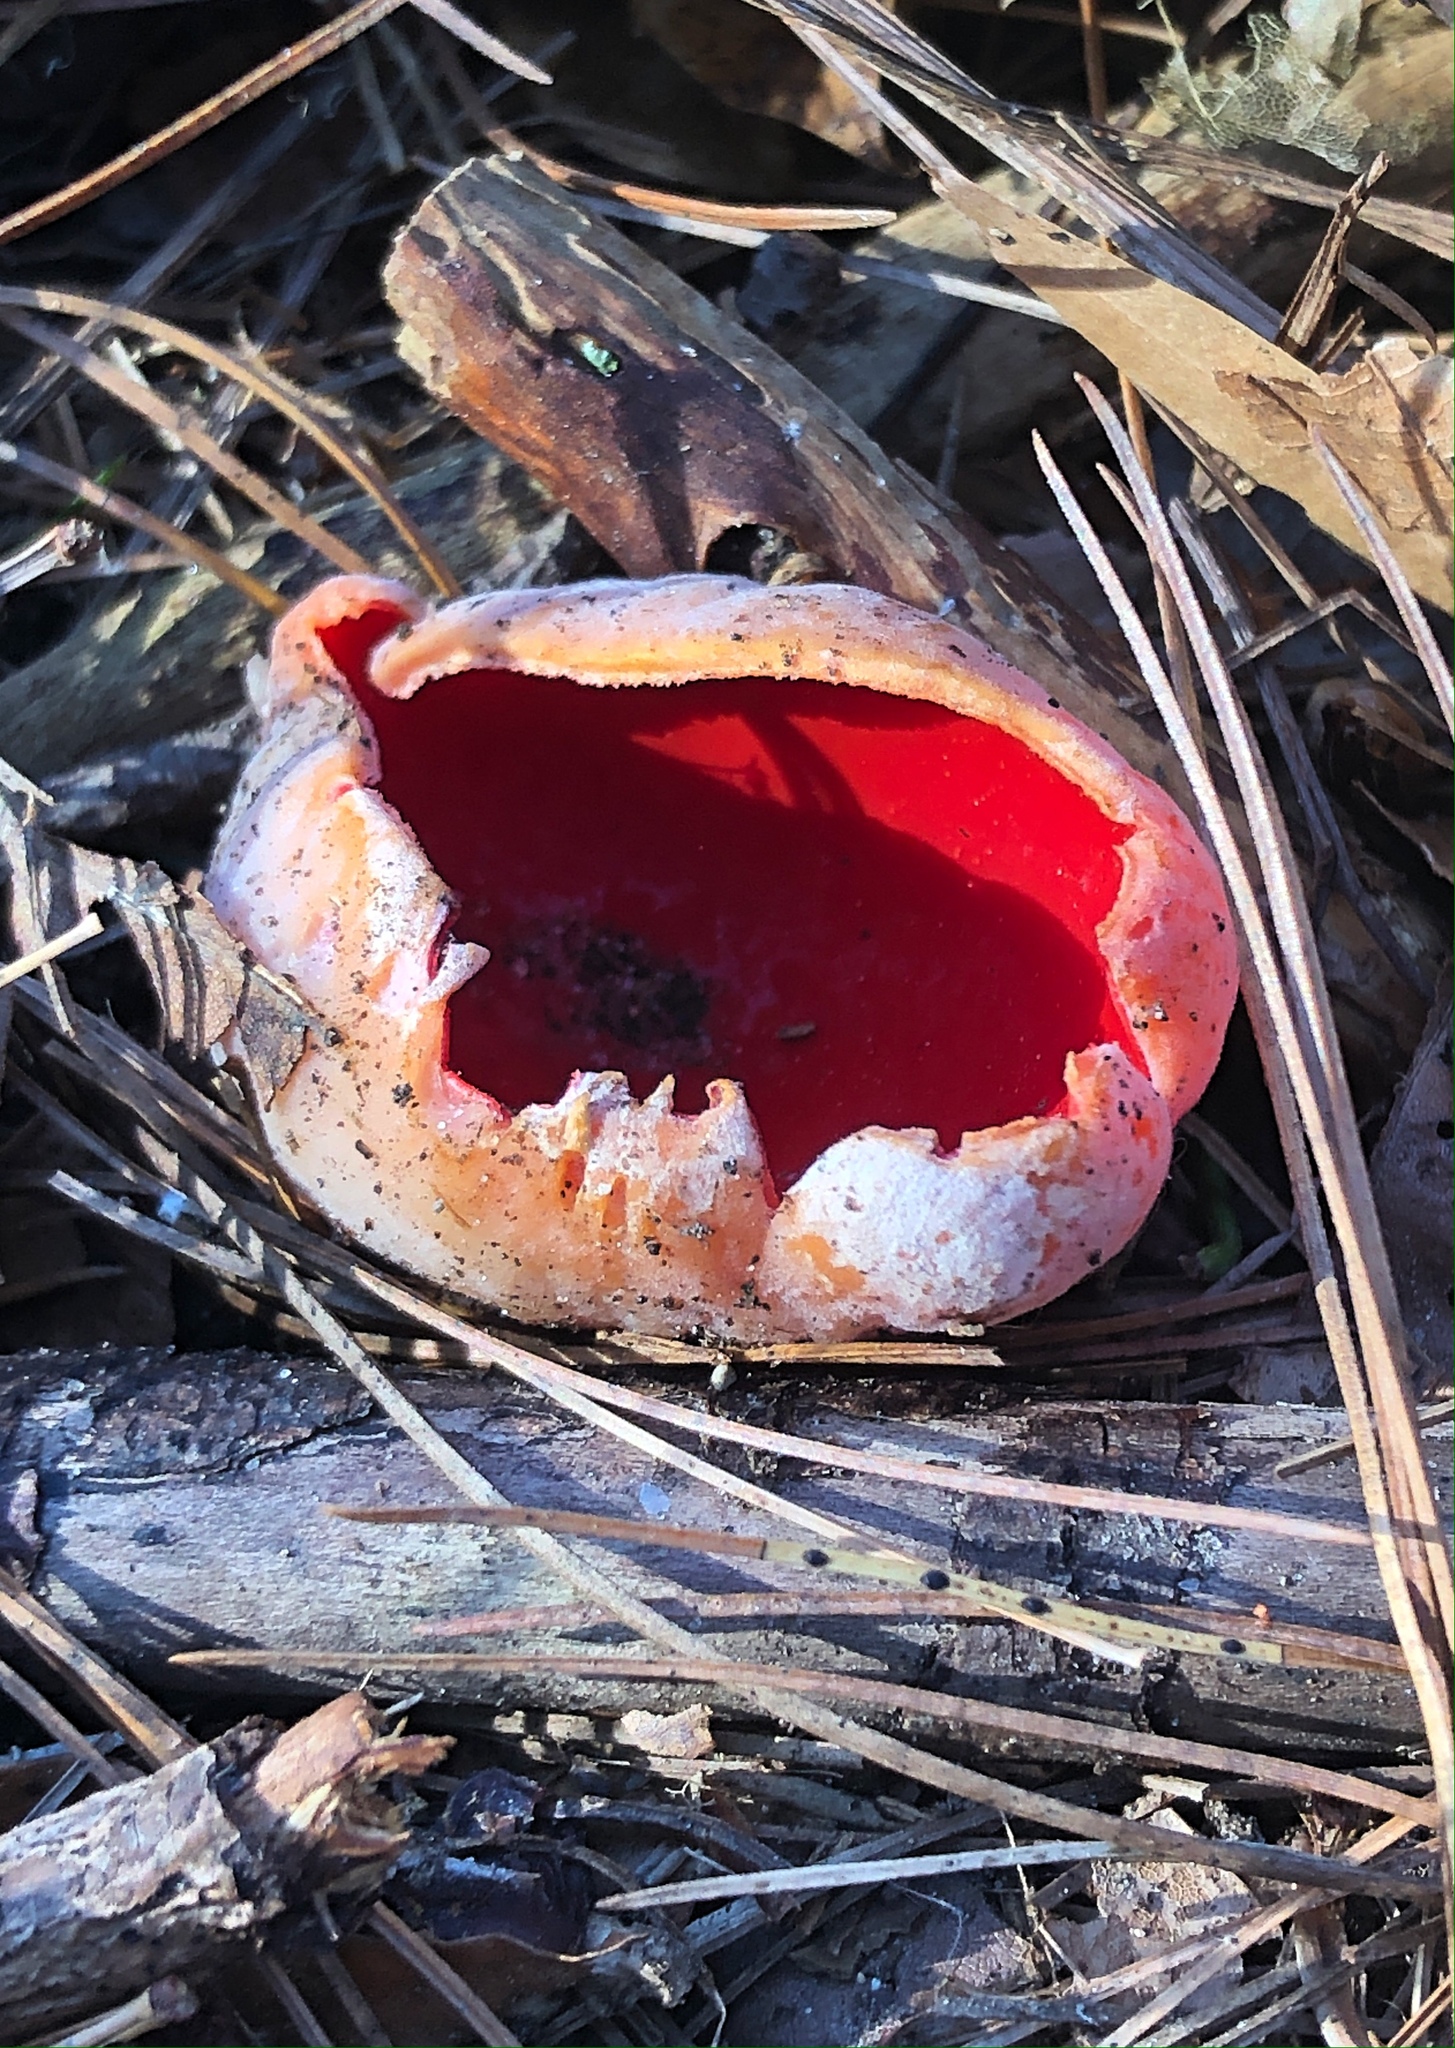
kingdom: Fungi
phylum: Ascomycota
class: Pezizomycetes
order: Pezizales
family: Sarcoscyphaceae
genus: Sarcoscypha
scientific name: Sarcoscypha
